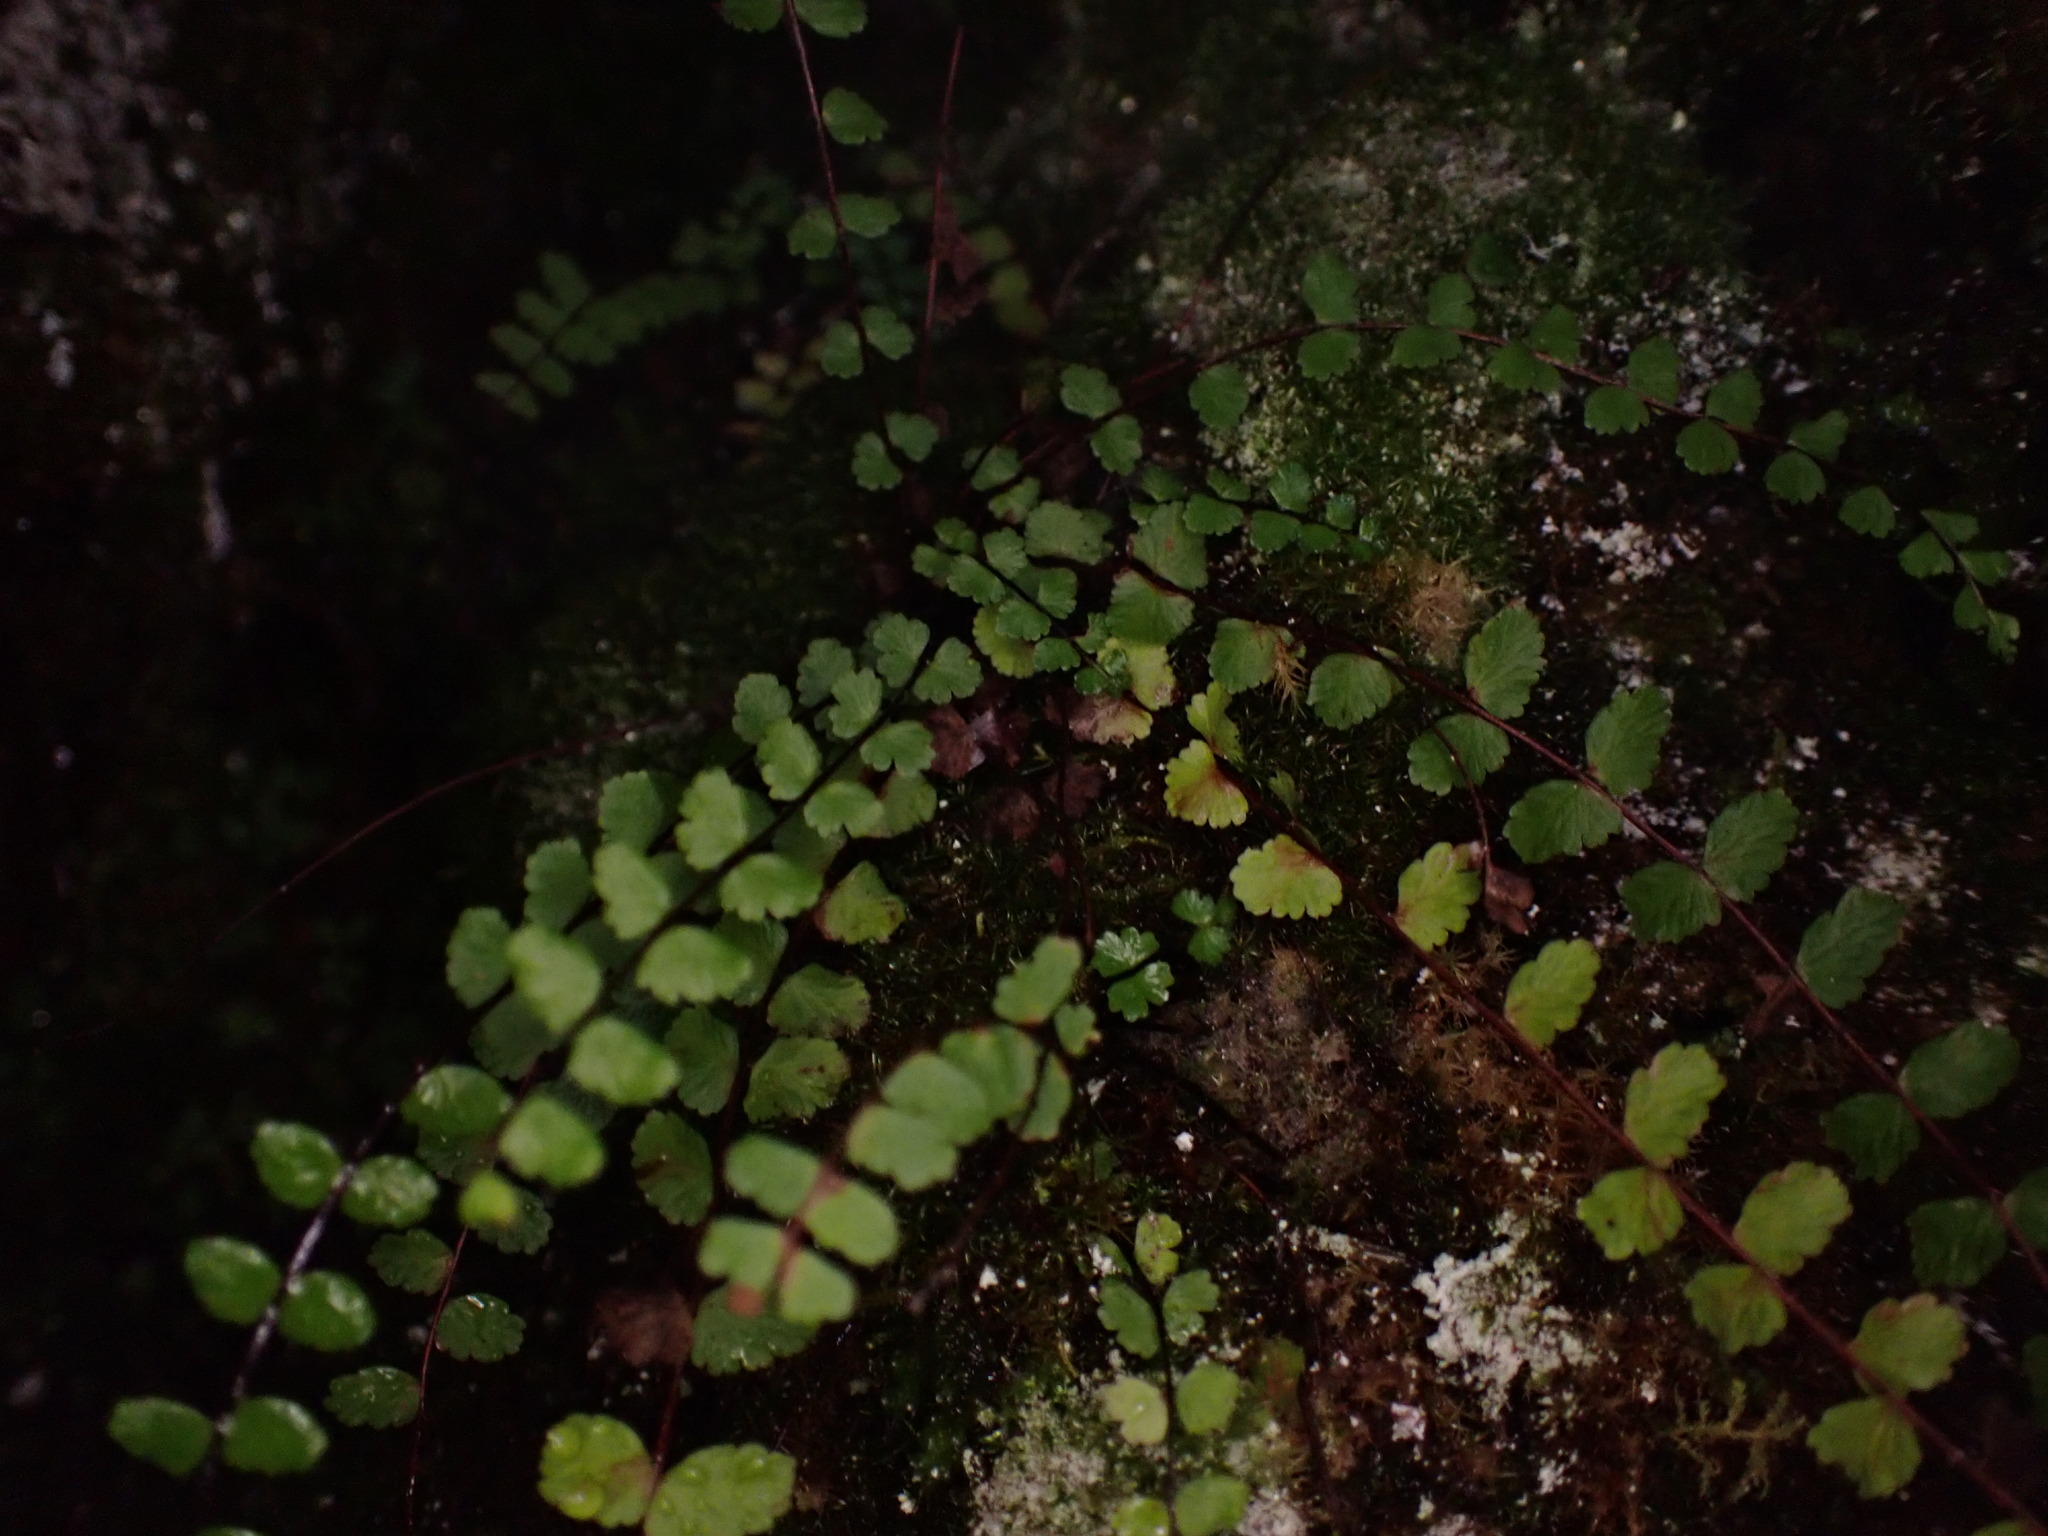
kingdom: Plantae
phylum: Tracheophyta
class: Polypodiopsida
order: Polypodiales
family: Aspleniaceae
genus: Asplenium
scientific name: Asplenium trichomanes
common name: Maidenhair spleenwort
